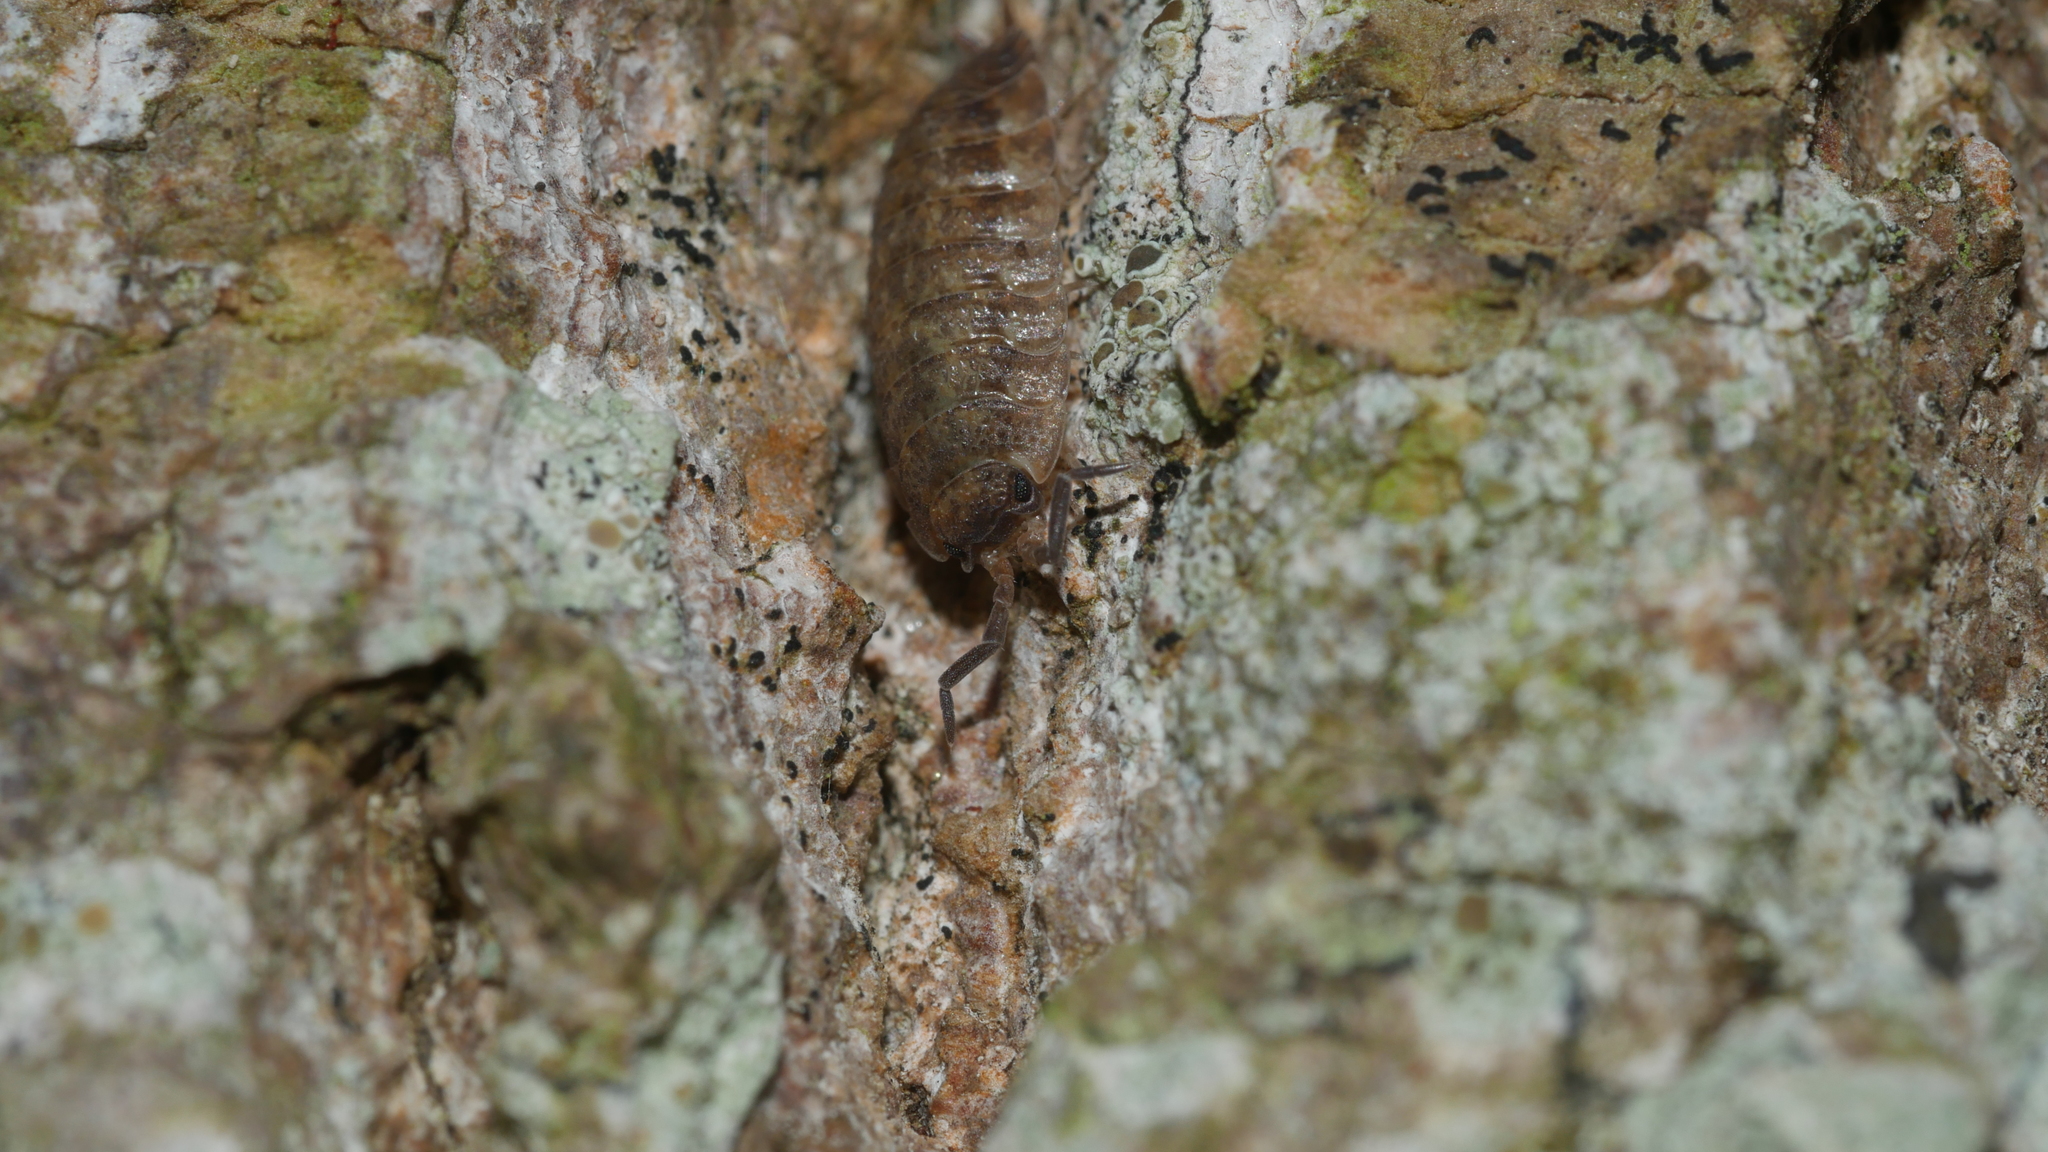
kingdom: Animalia
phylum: Arthropoda
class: Malacostraca
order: Isopoda
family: Porcellionidae
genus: Porcellio
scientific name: Porcellio scaber
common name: Common rough woodlouse
